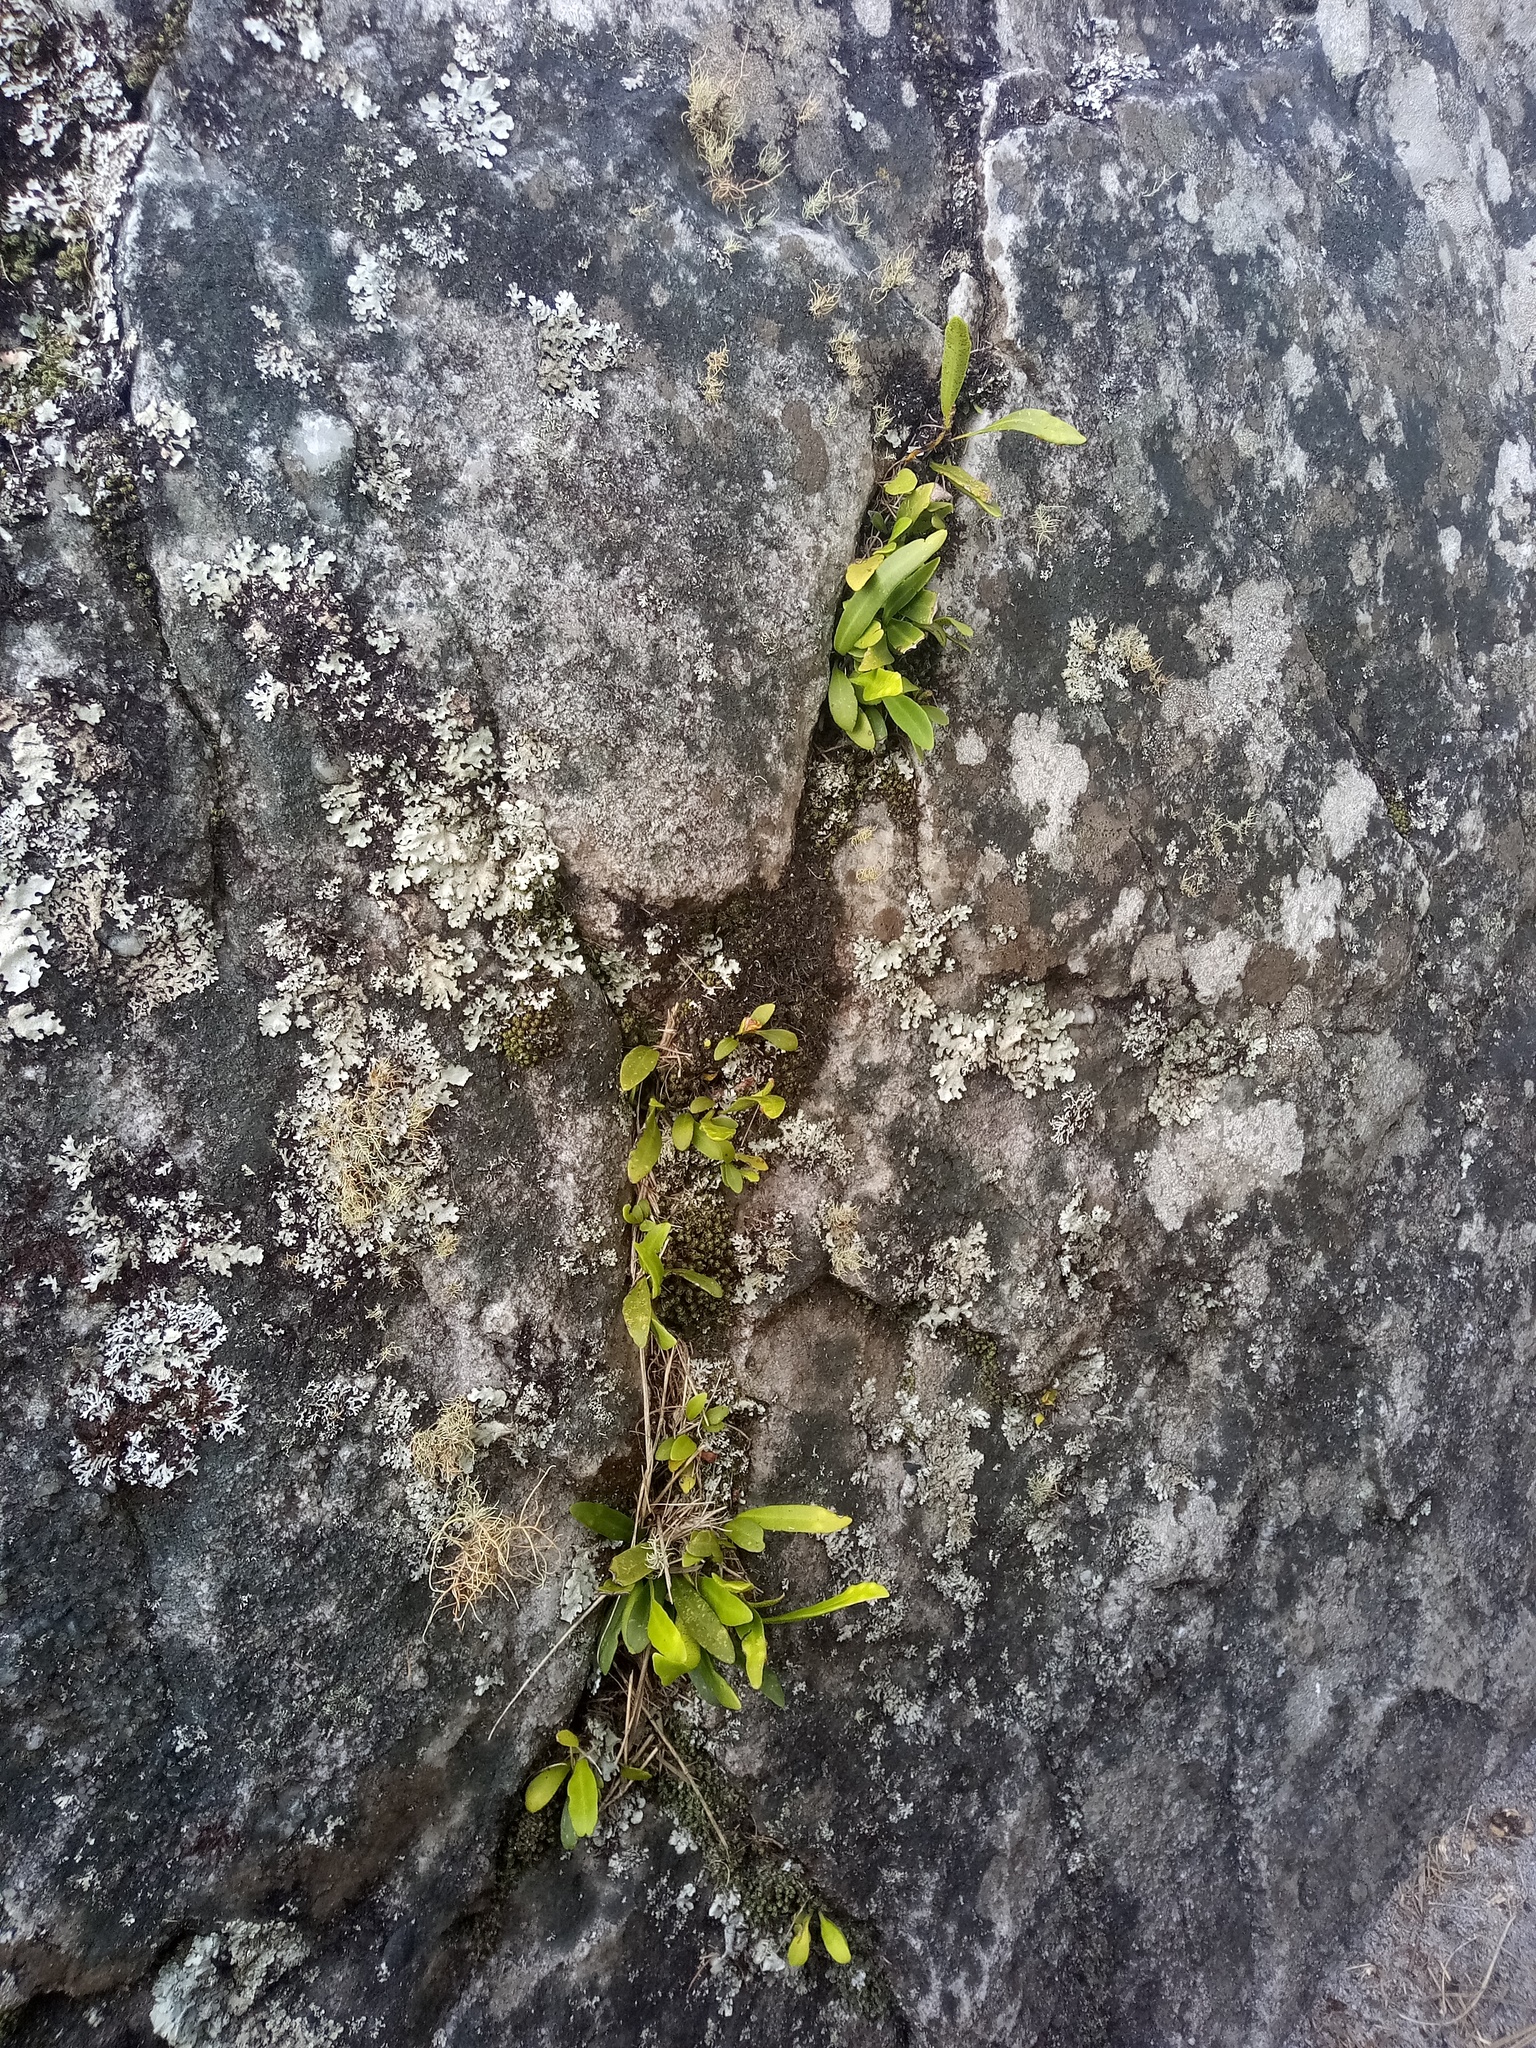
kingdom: Plantae
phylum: Tracheophyta
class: Polypodiopsida
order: Polypodiales
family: Polypodiaceae
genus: Pleopeltis
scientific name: Pleopeltis macrocarpa
